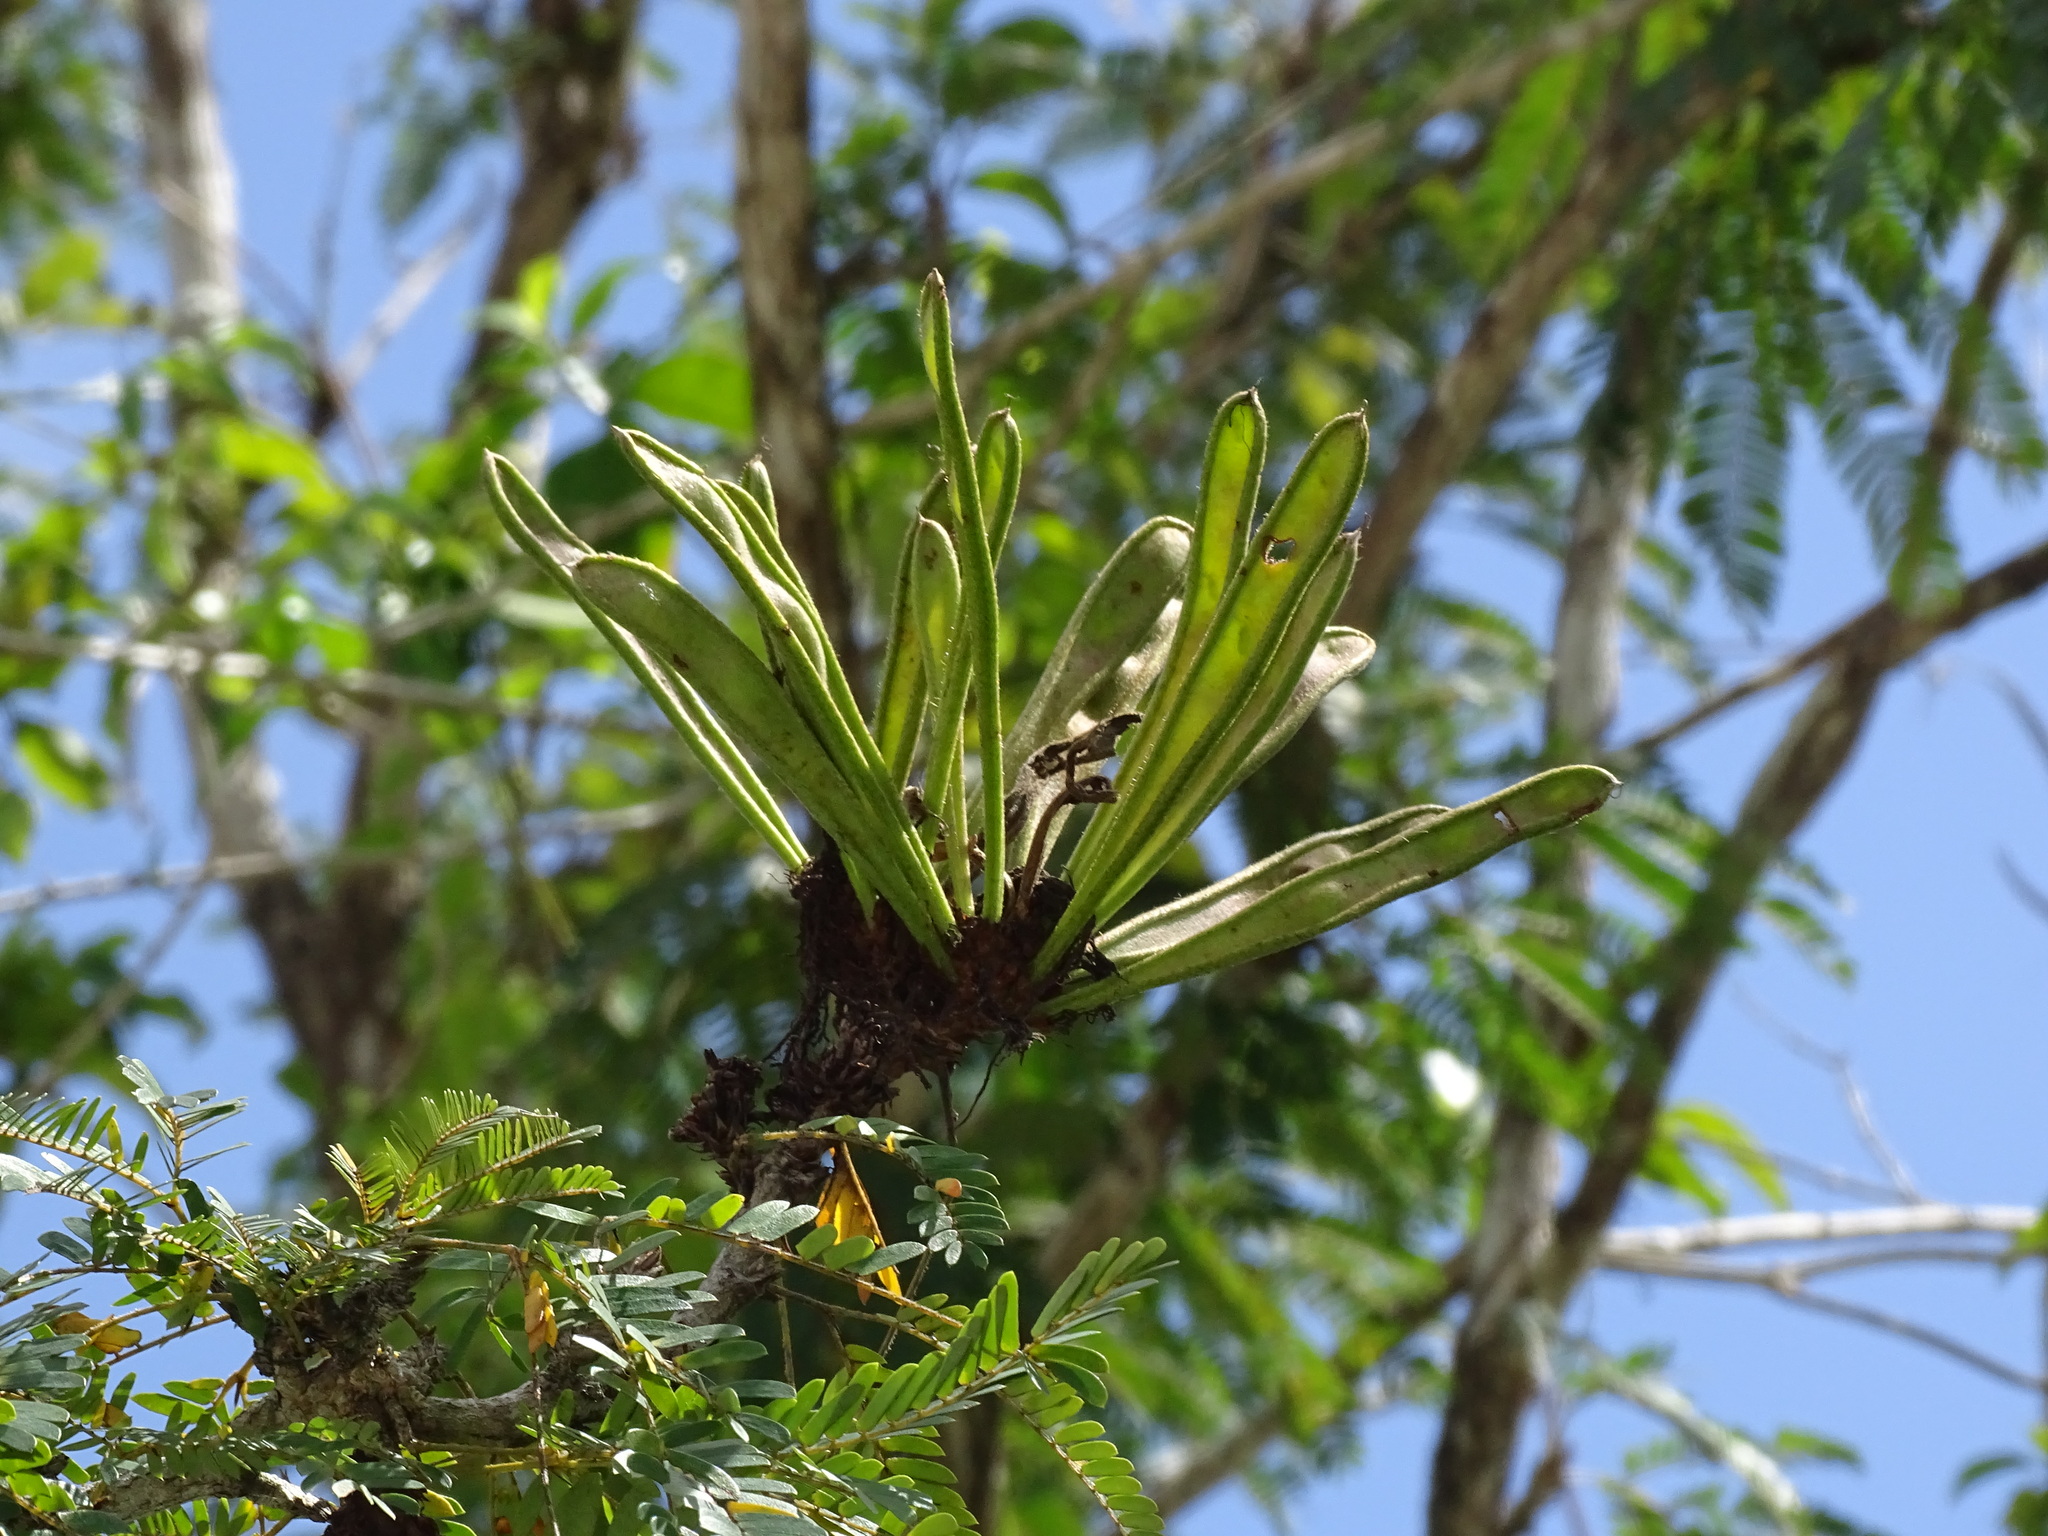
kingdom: Plantae
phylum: Tracheophyta
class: Magnoliopsida
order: Fabales
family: Fabaceae
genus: Calliandra
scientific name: Calliandra belizensis
